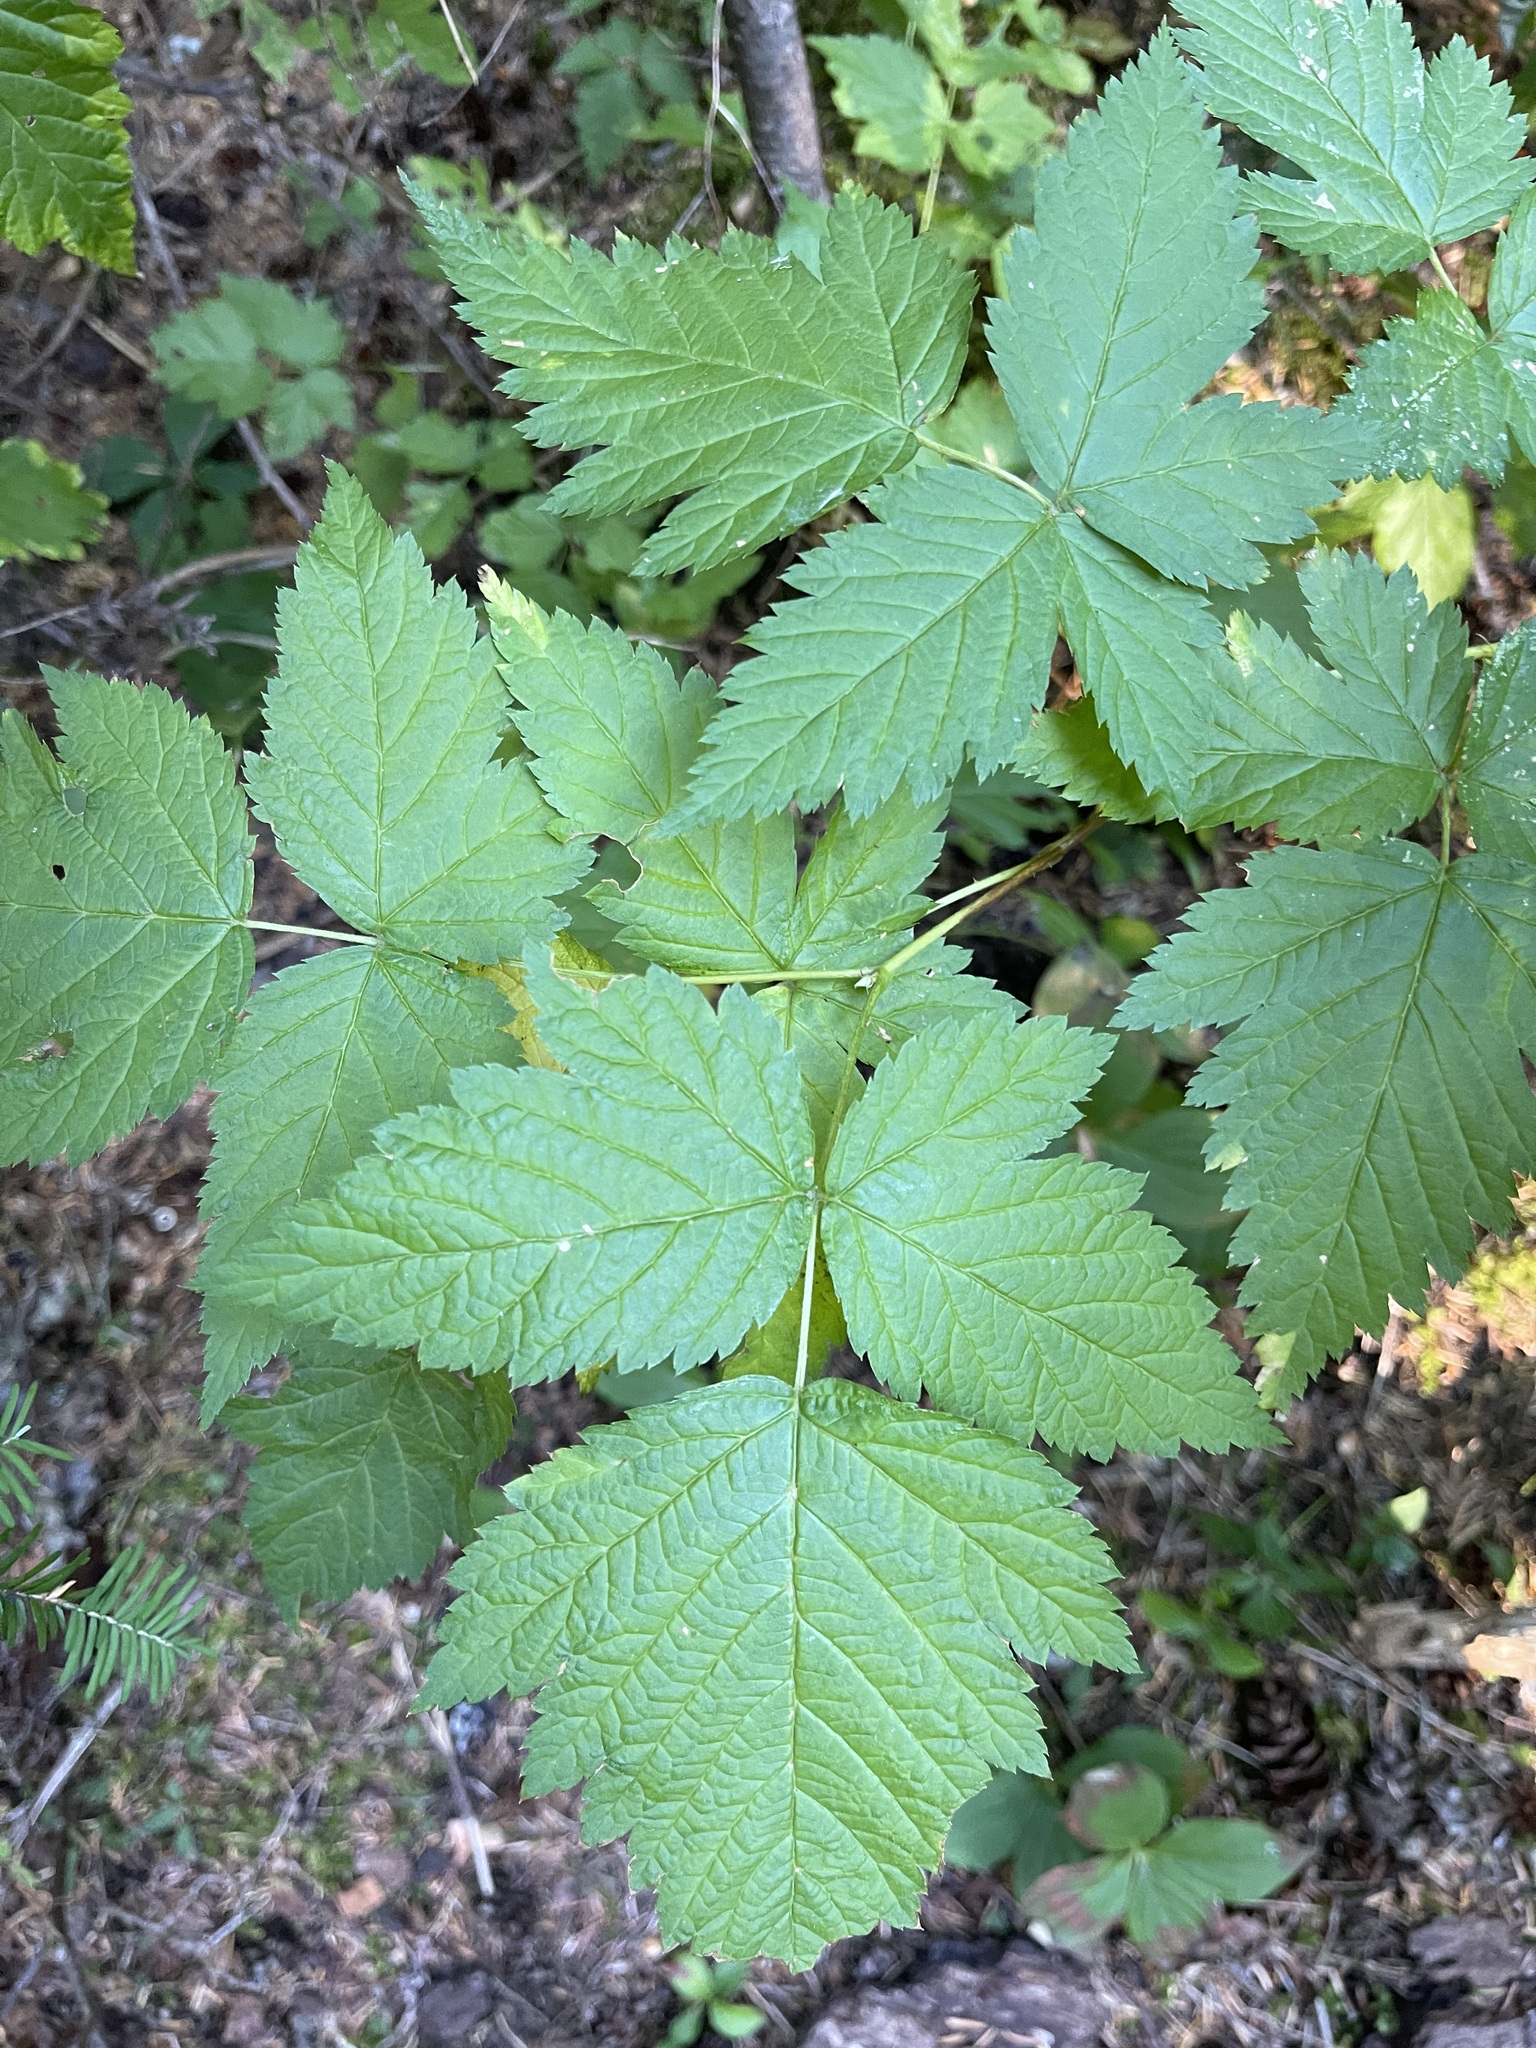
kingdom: Plantae
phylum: Tracheophyta
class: Magnoliopsida
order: Rosales
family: Rosaceae
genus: Rubus
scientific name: Rubus spectabilis
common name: Salmonberry
